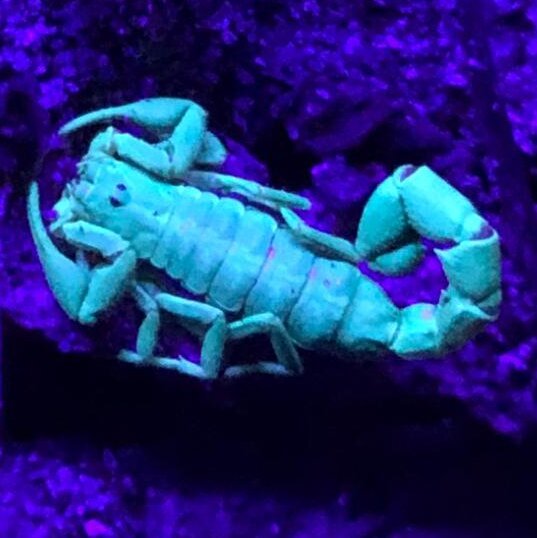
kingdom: Animalia
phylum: Arthropoda
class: Arachnida
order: Scorpiones
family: Buthidae
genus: Uroplectes
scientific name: Uroplectes formosus
